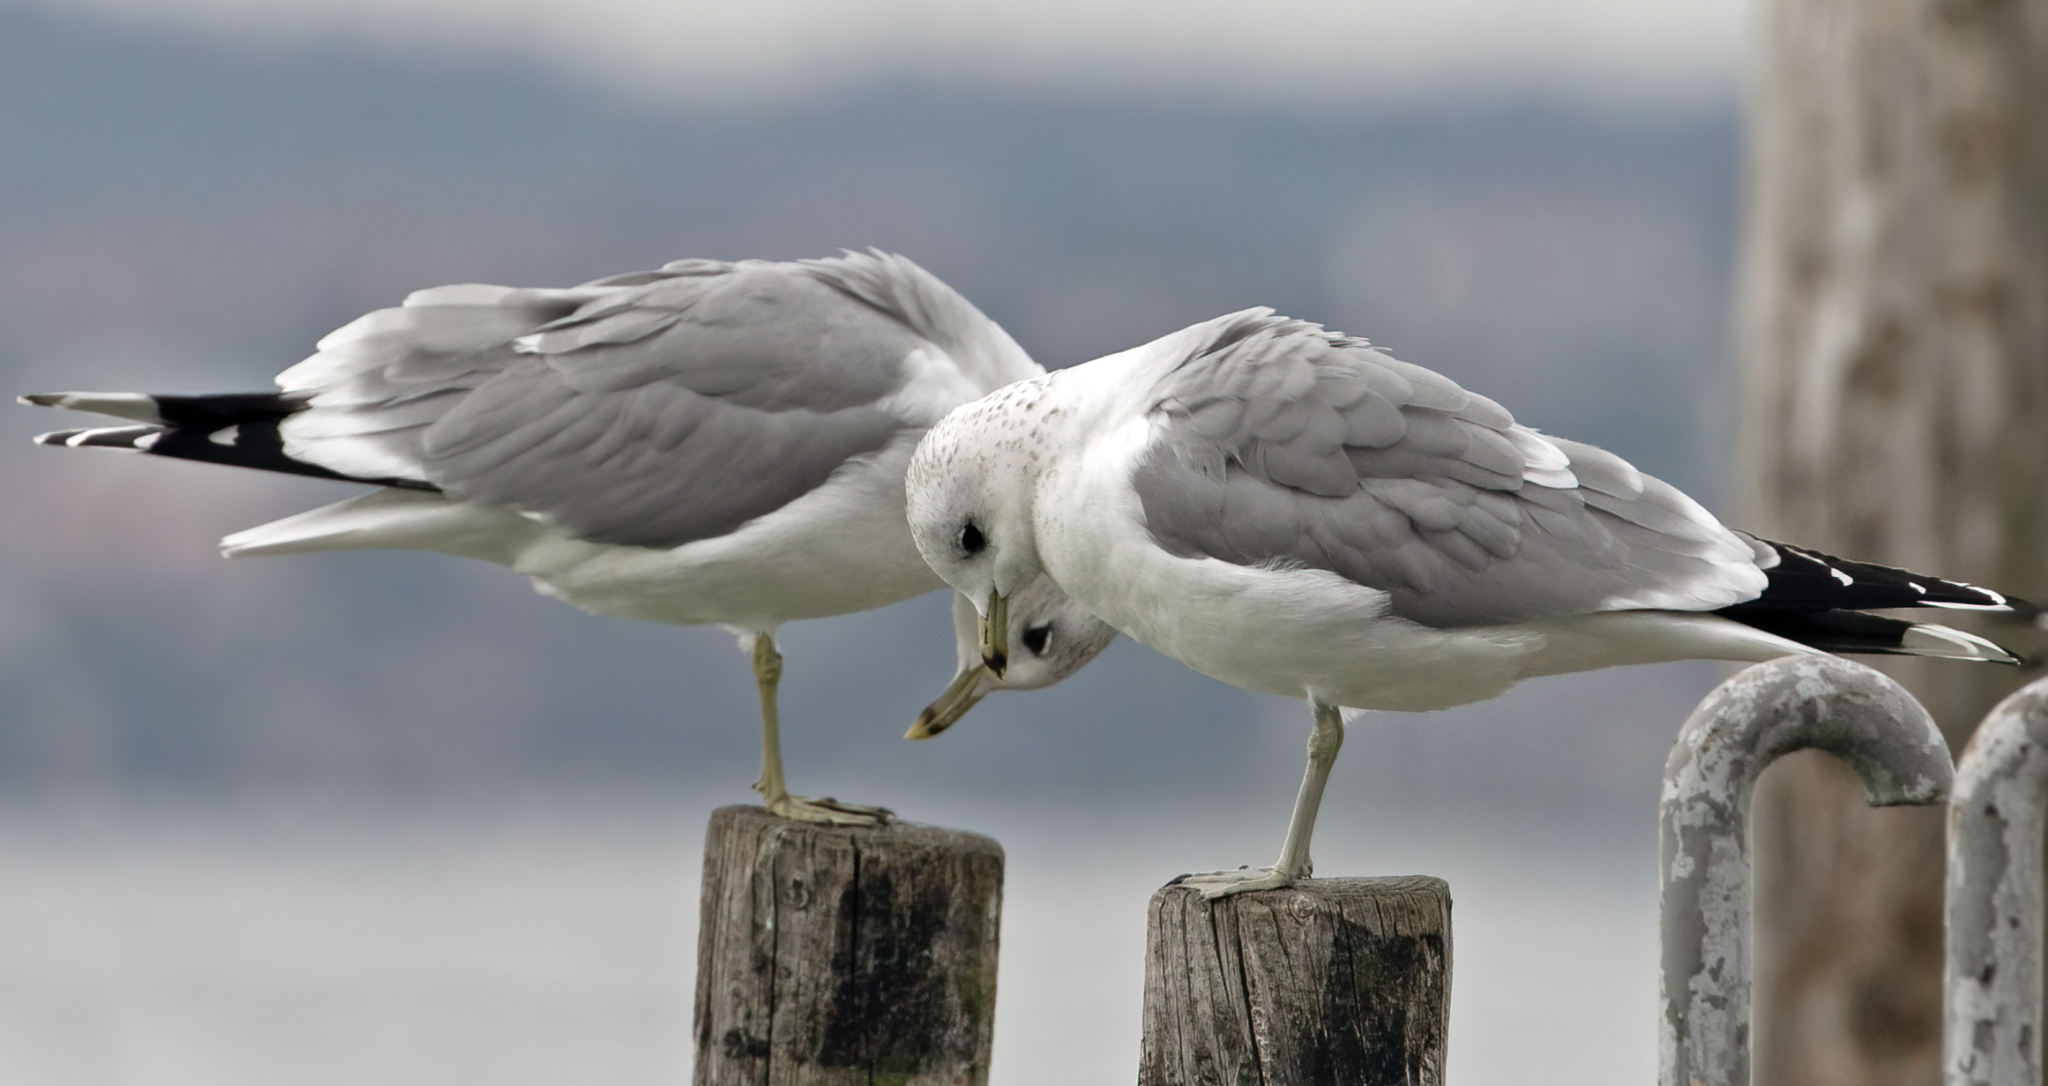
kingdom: Animalia
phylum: Chordata
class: Aves
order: Charadriiformes
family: Laridae
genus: Larus
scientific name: Larus canus
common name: Mew gull
